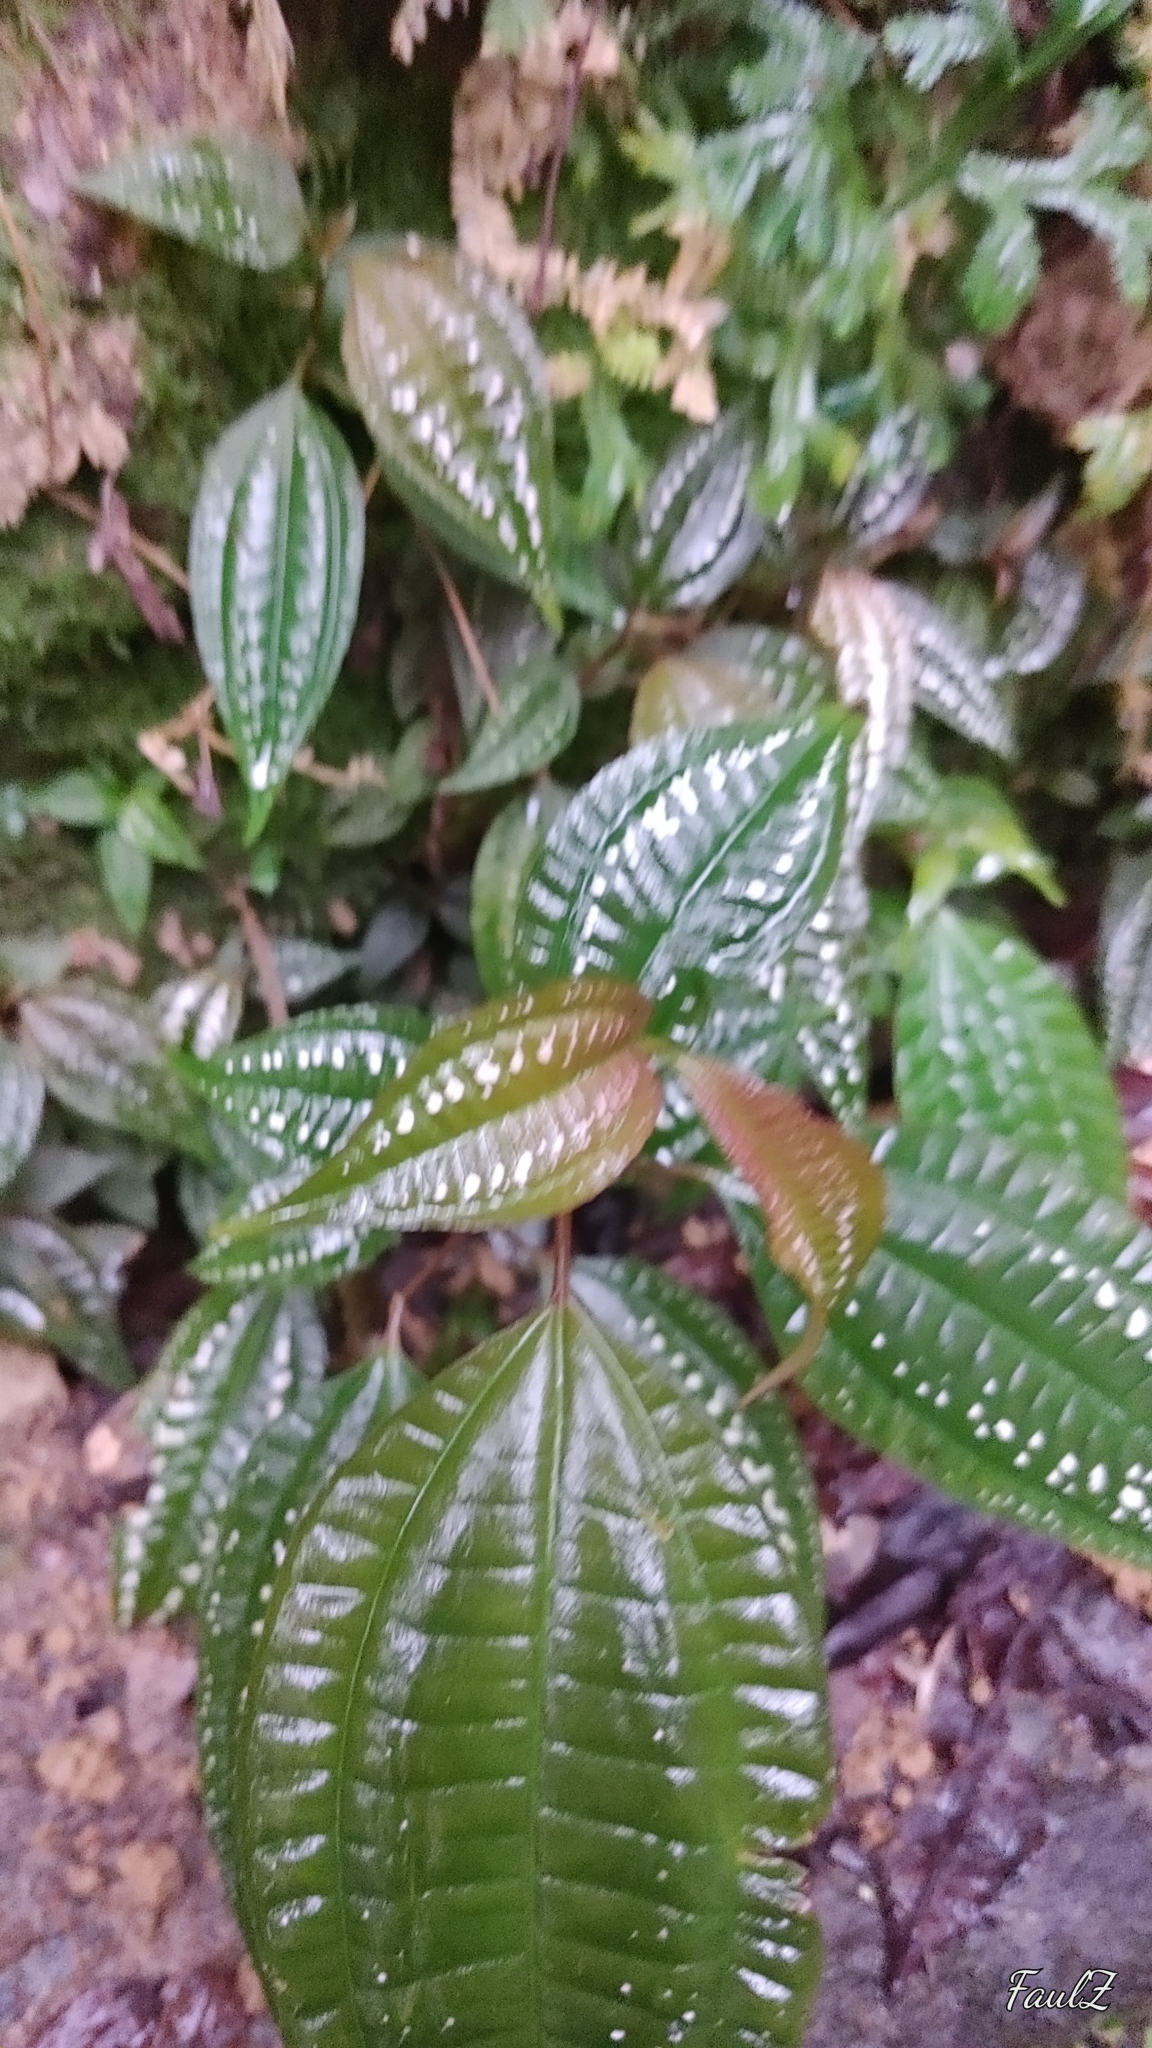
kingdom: Plantae
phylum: Tracheophyta
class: Magnoliopsida
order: Myrtales
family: Melastomataceae
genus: Blastus
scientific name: Blastus cochinchinensis
